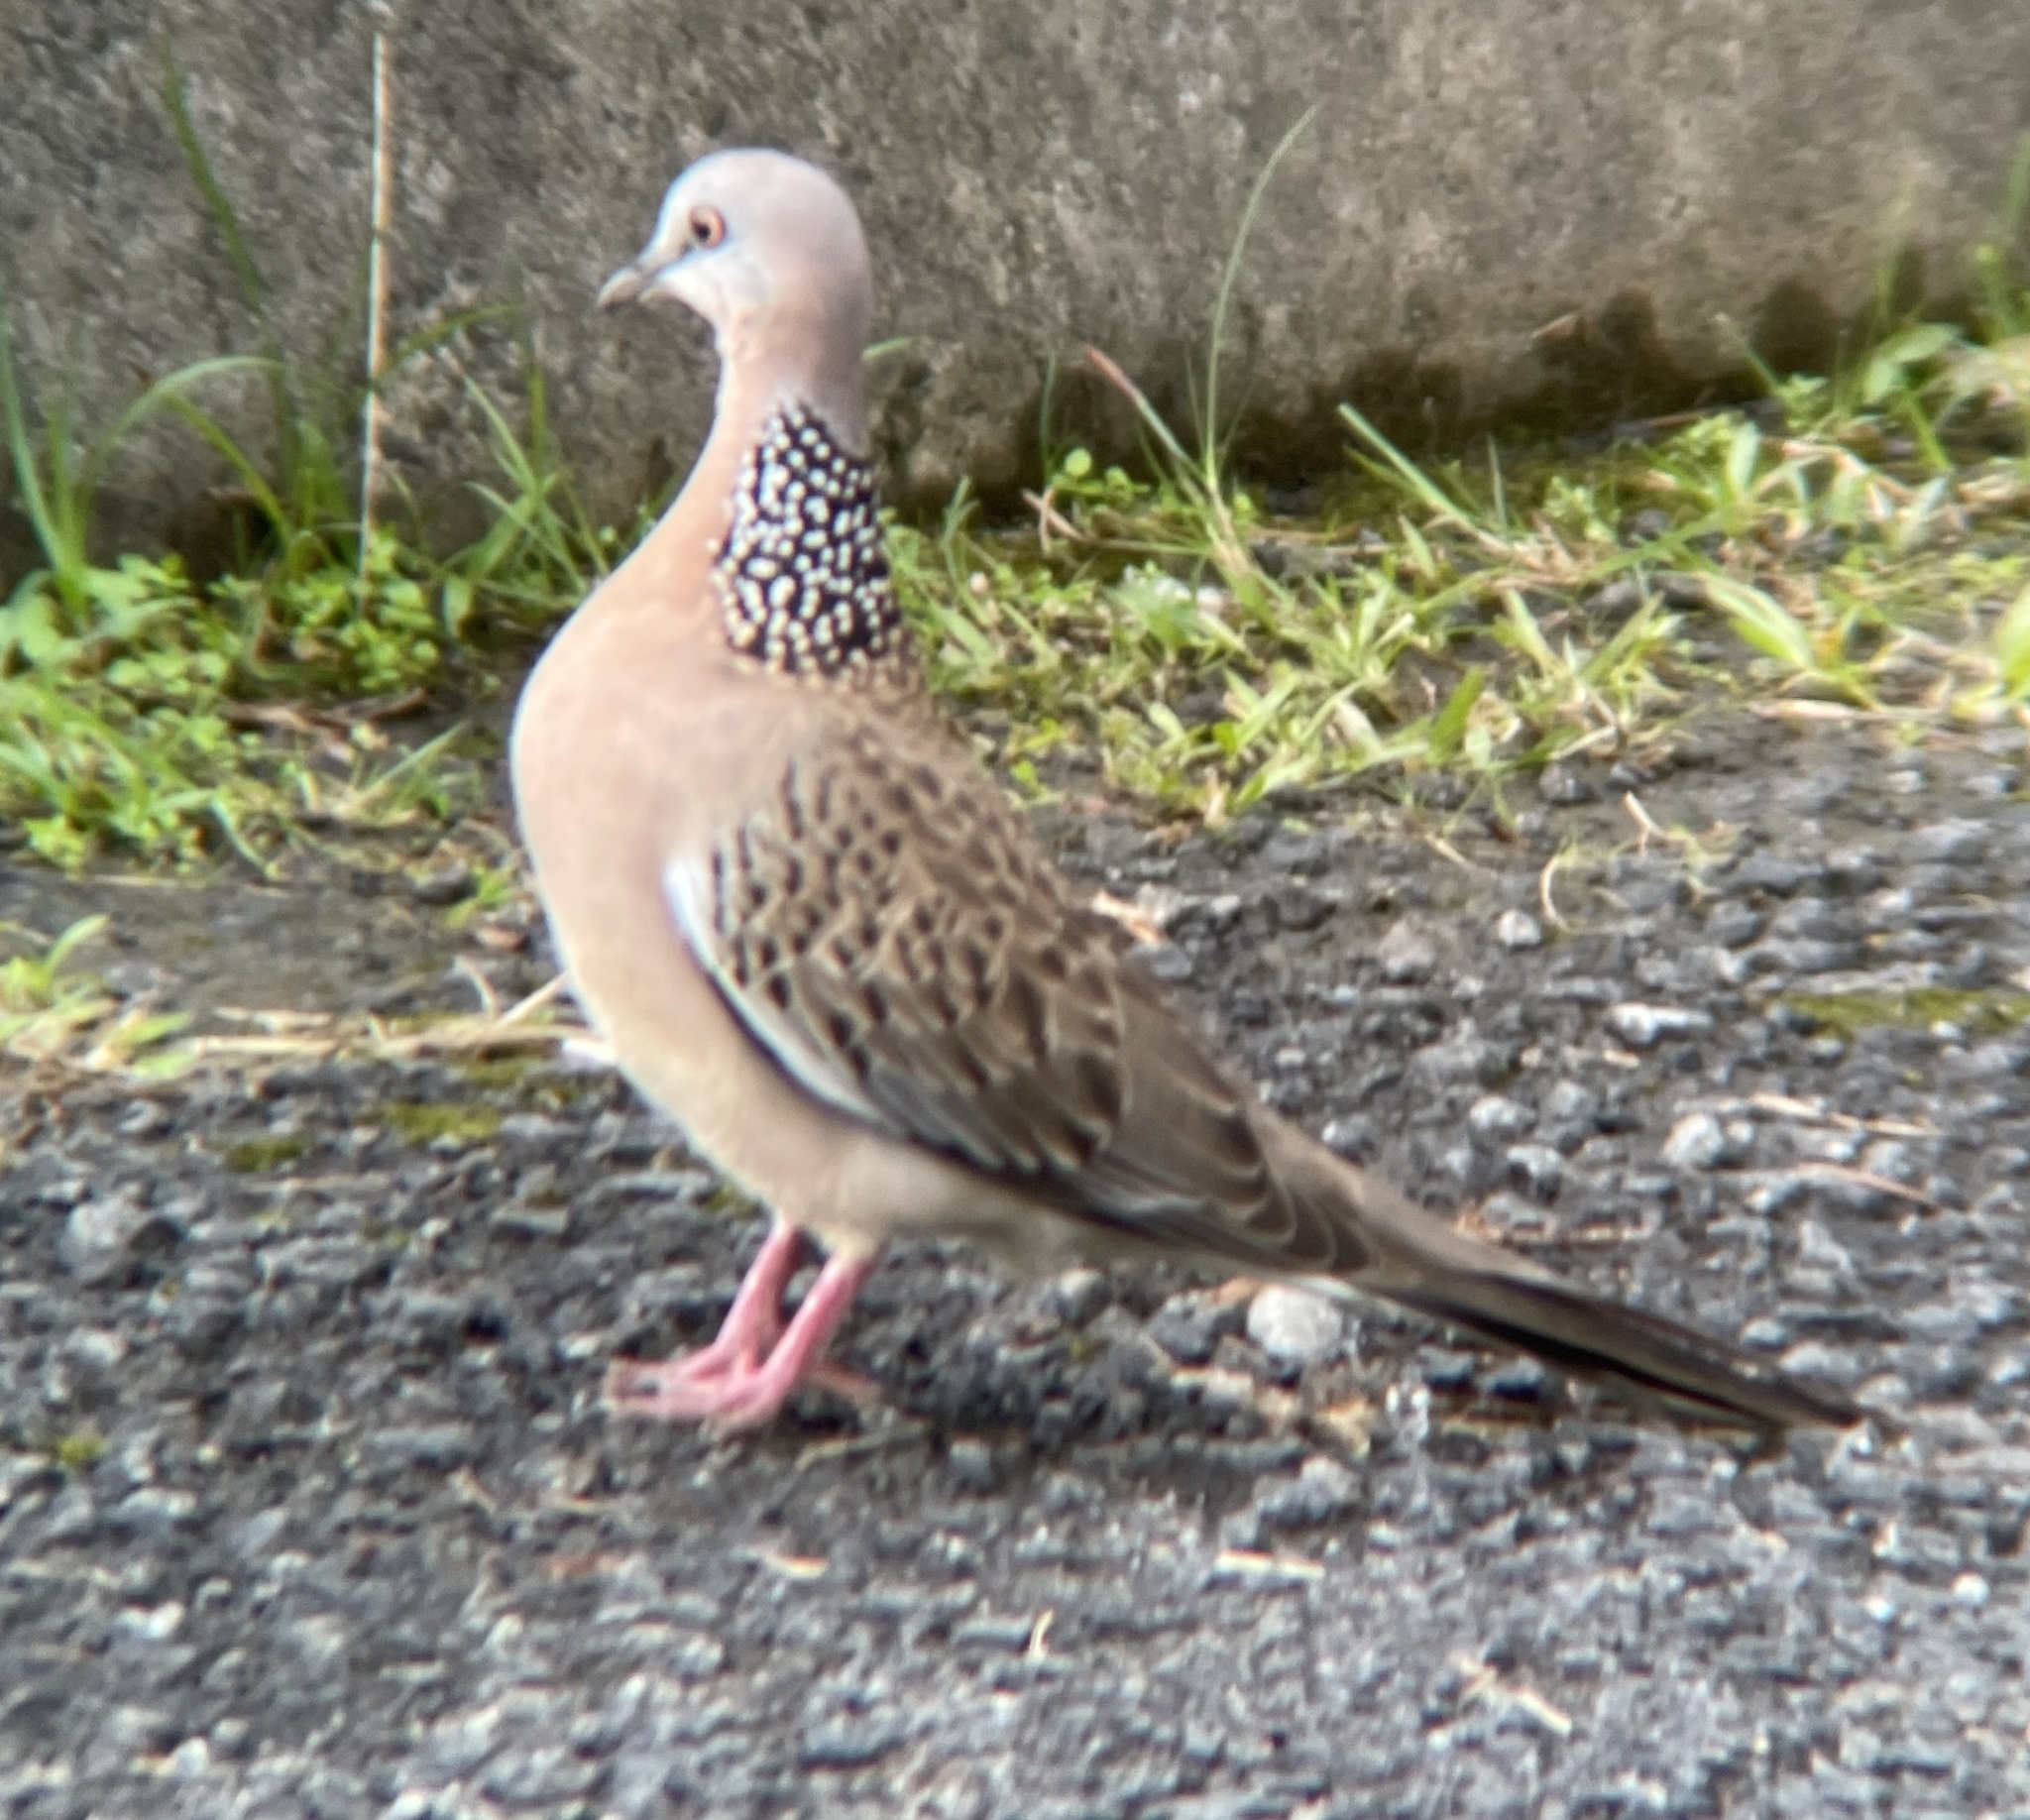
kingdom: Animalia
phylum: Chordata
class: Aves
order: Columbiformes
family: Columbidae
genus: Spilopelia
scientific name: Spilopelia chinensis
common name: Spotted dove
